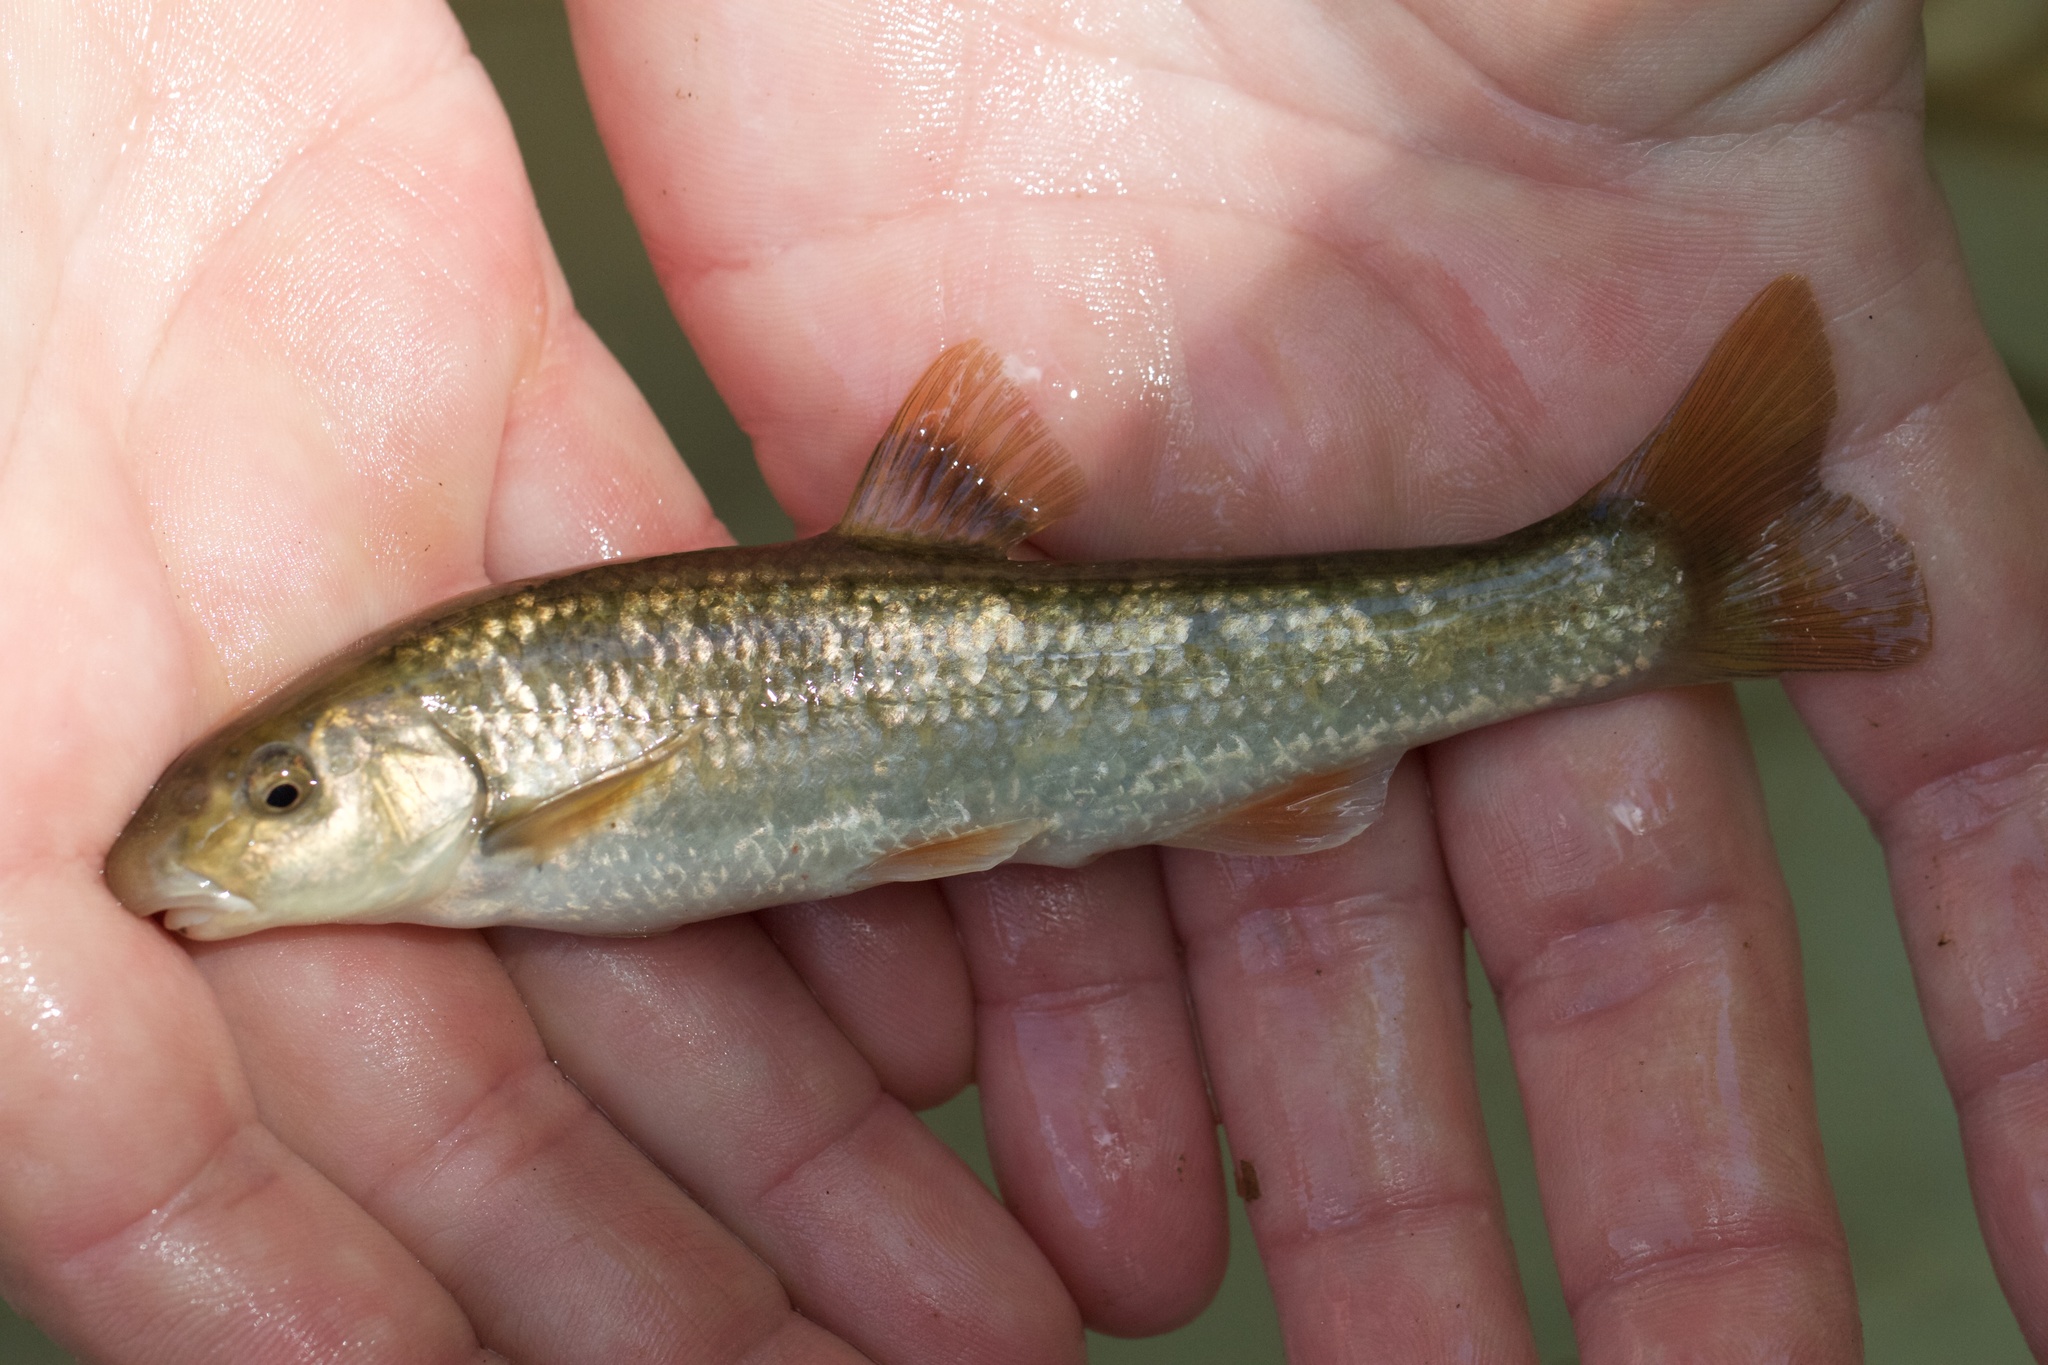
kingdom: Animalia
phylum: Chordata
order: Cypriniformes
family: Cyprinidae
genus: Campostoma
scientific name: Campostoma anomalum
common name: Central stoneroller
